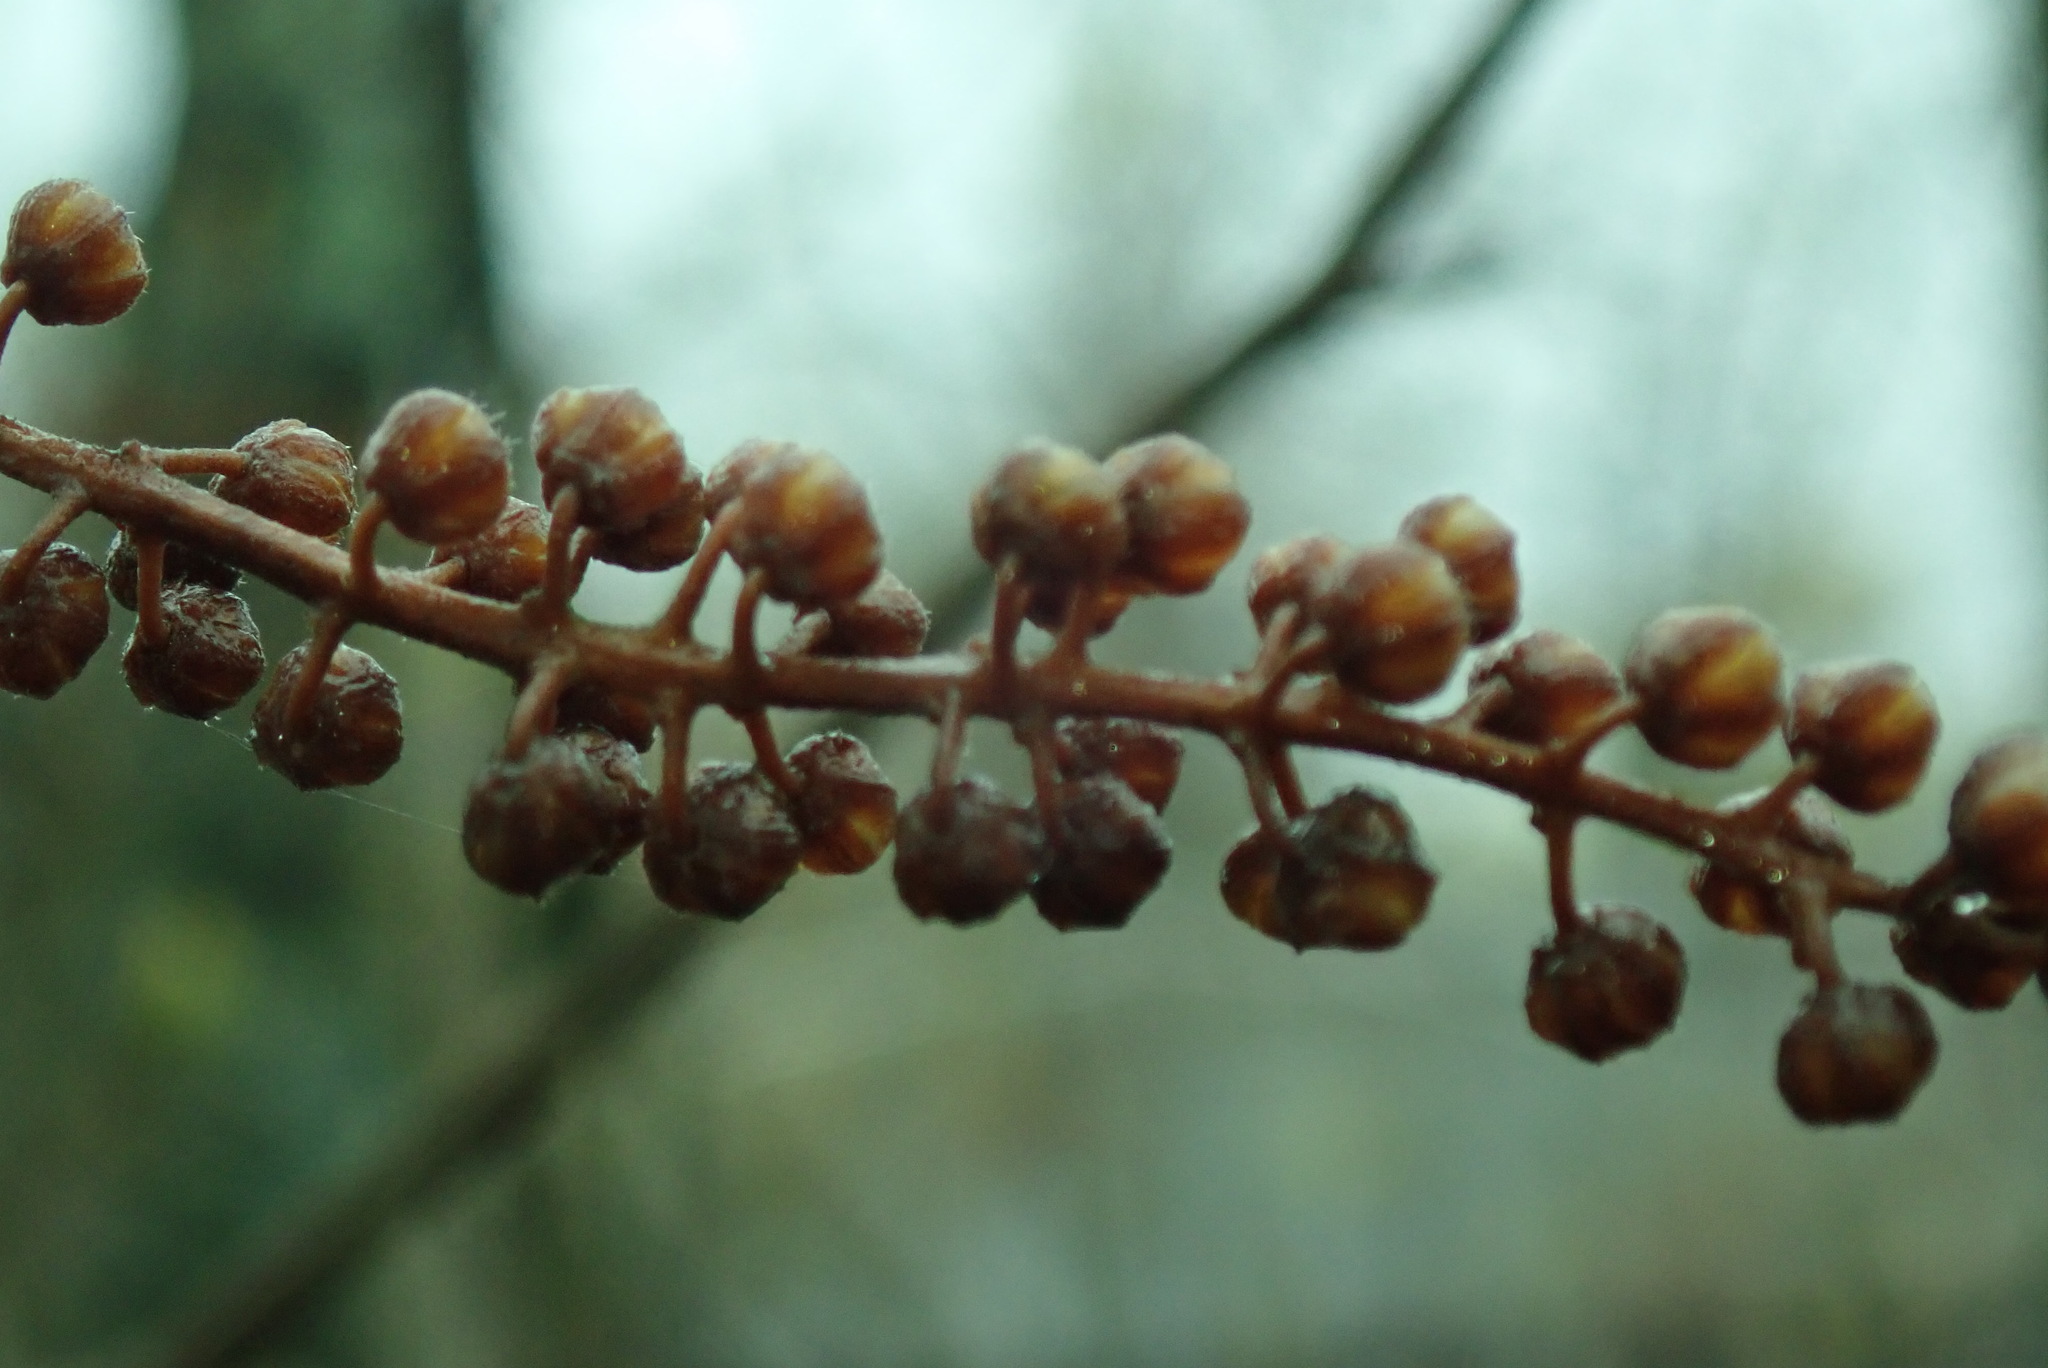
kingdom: Plantae
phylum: Tracheophyta
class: Magnoliopsida
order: Ericales
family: Clethraceae
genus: Clethra
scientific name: Clethra alnifolia
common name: Sweet pepperbush
